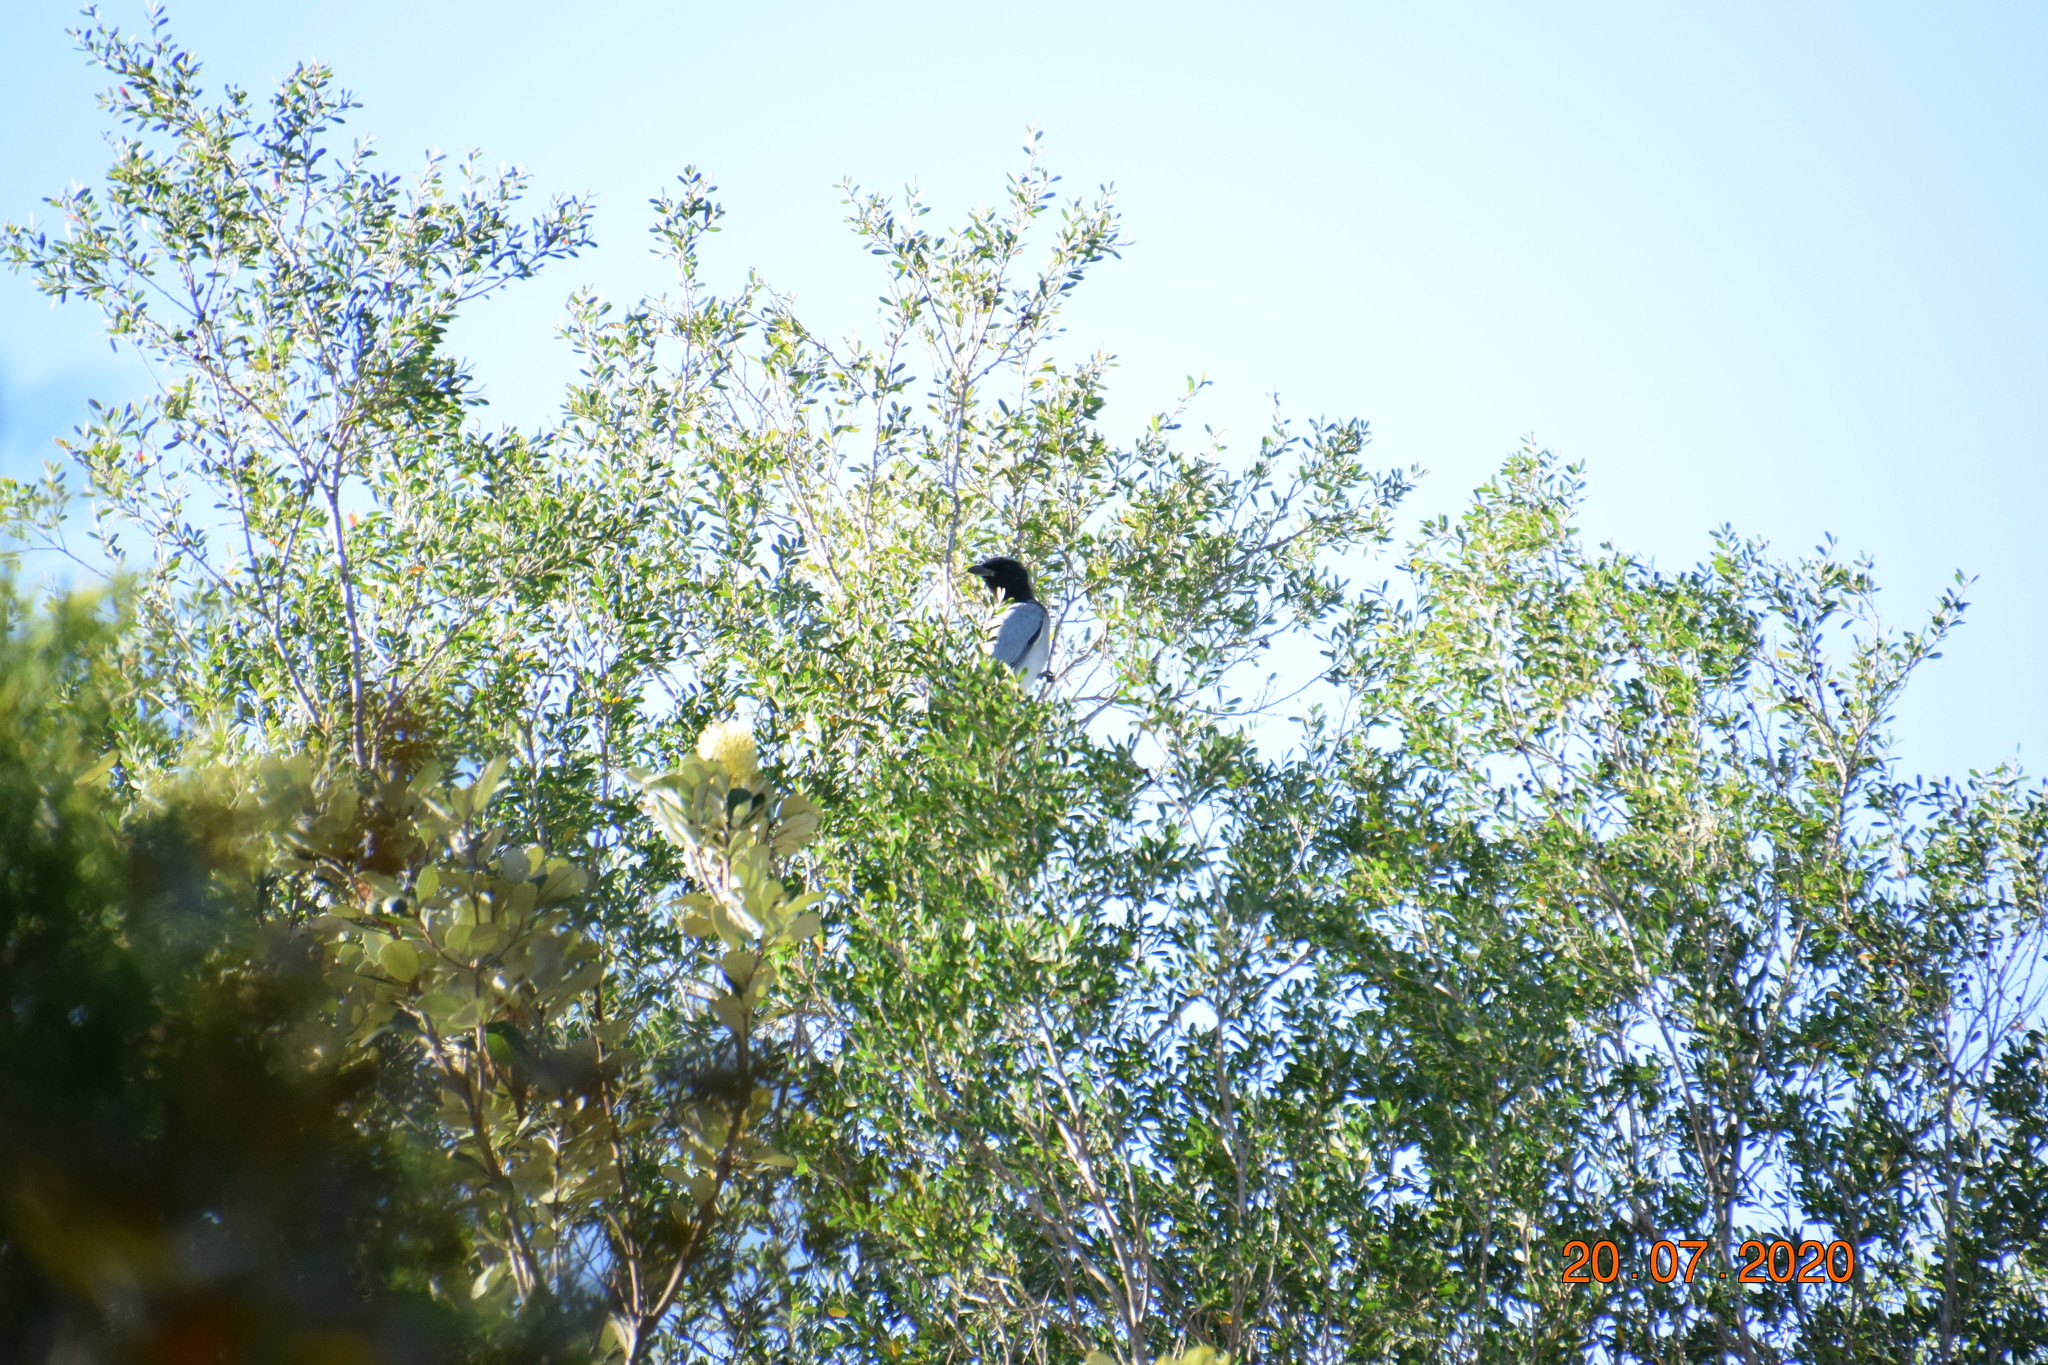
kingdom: Animalia
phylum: Chordata
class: Aves
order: Passeriformes
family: Campephagidae
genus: Coracina
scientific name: Coracina novaehollandiae
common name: Black-faced cuckooshrike
